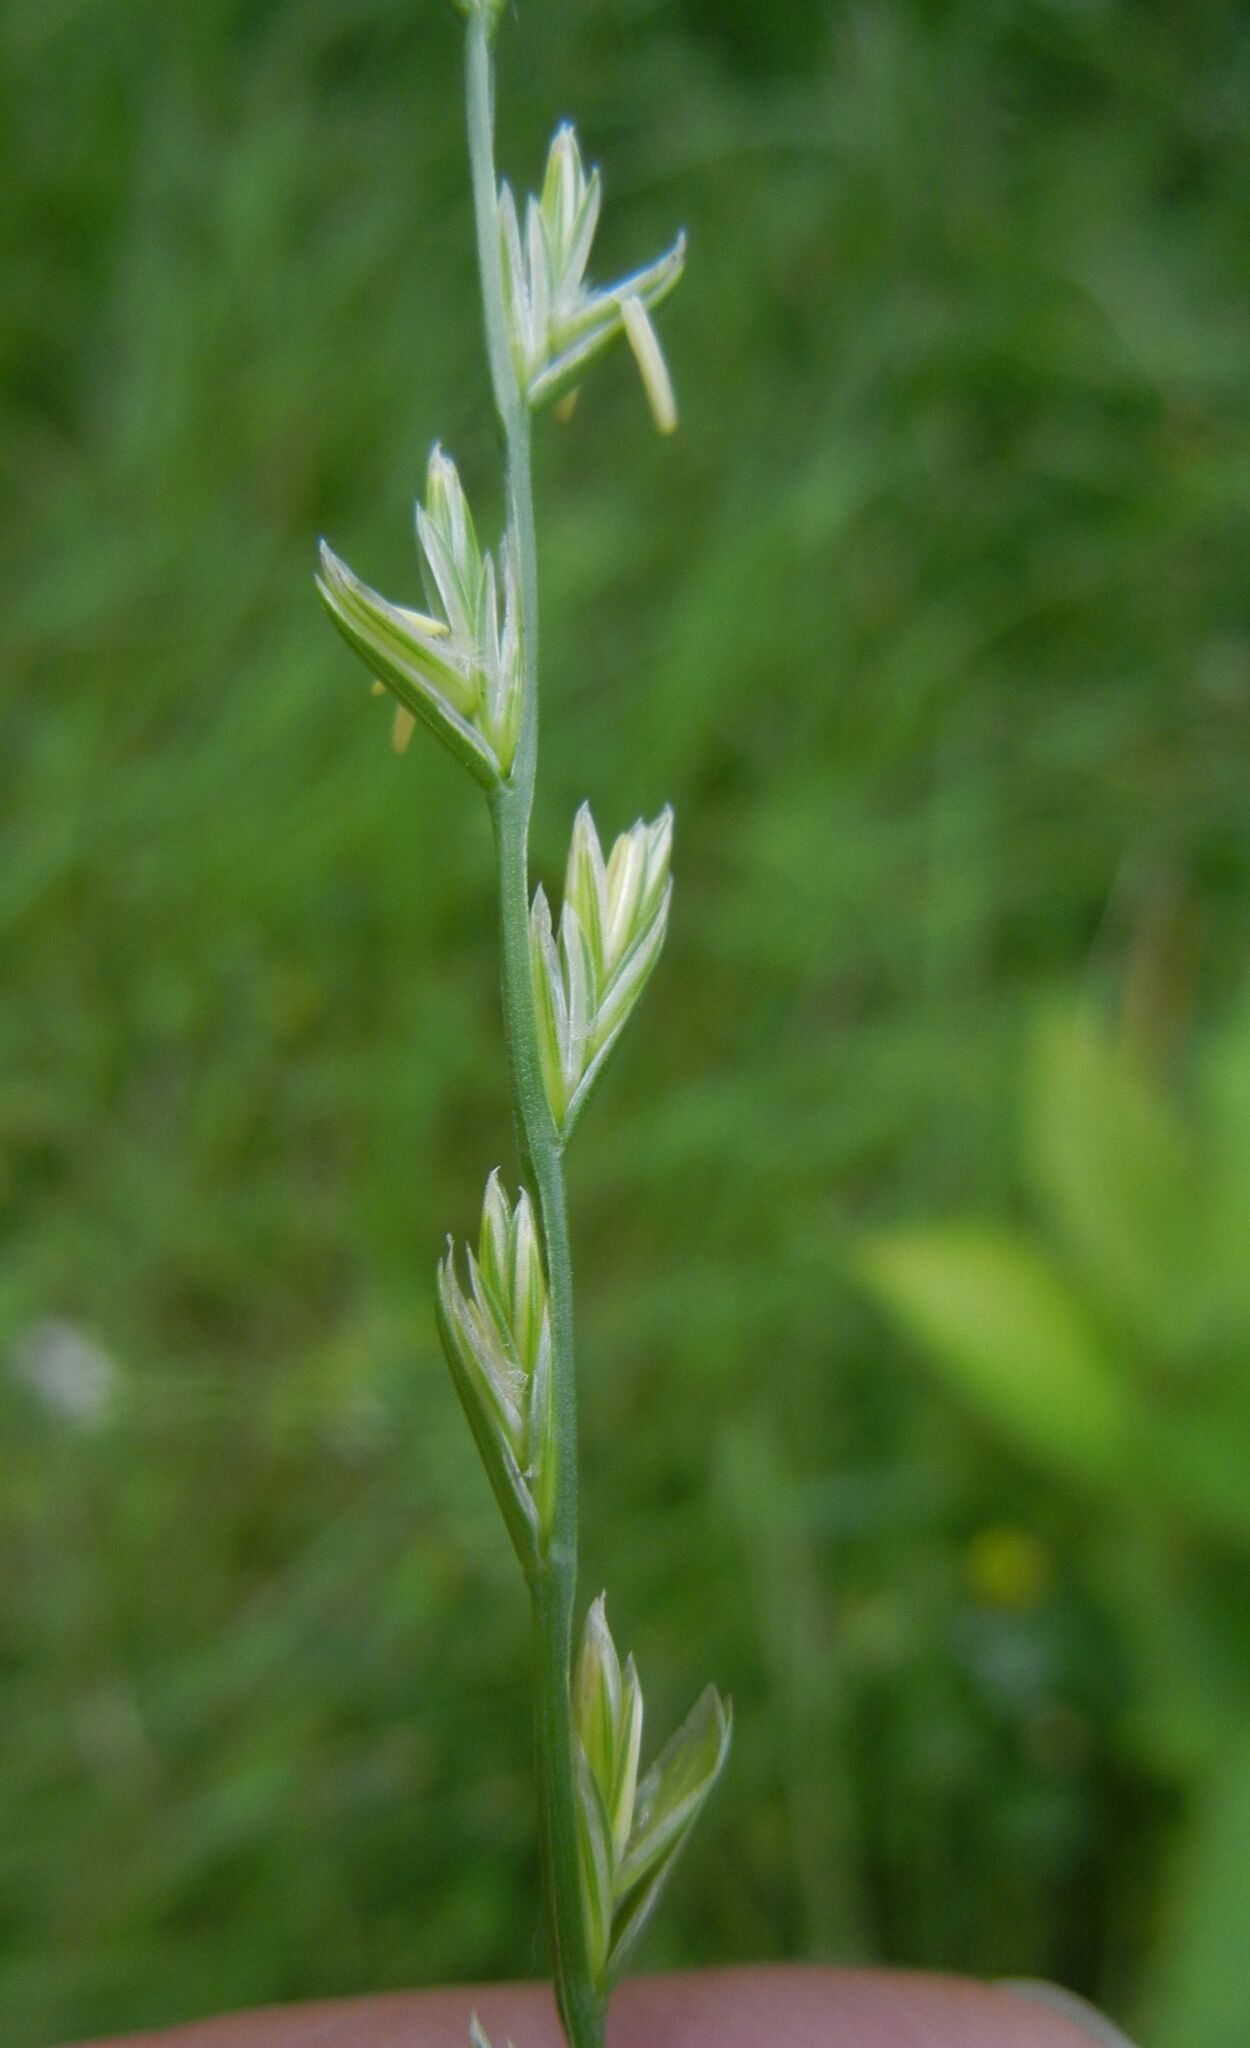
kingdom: Plantae
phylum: Tracheophyta
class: Liliopsida
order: Poales
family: Poaceae
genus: Lolium
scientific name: Lolium perenne
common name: Perennial ryegrass
